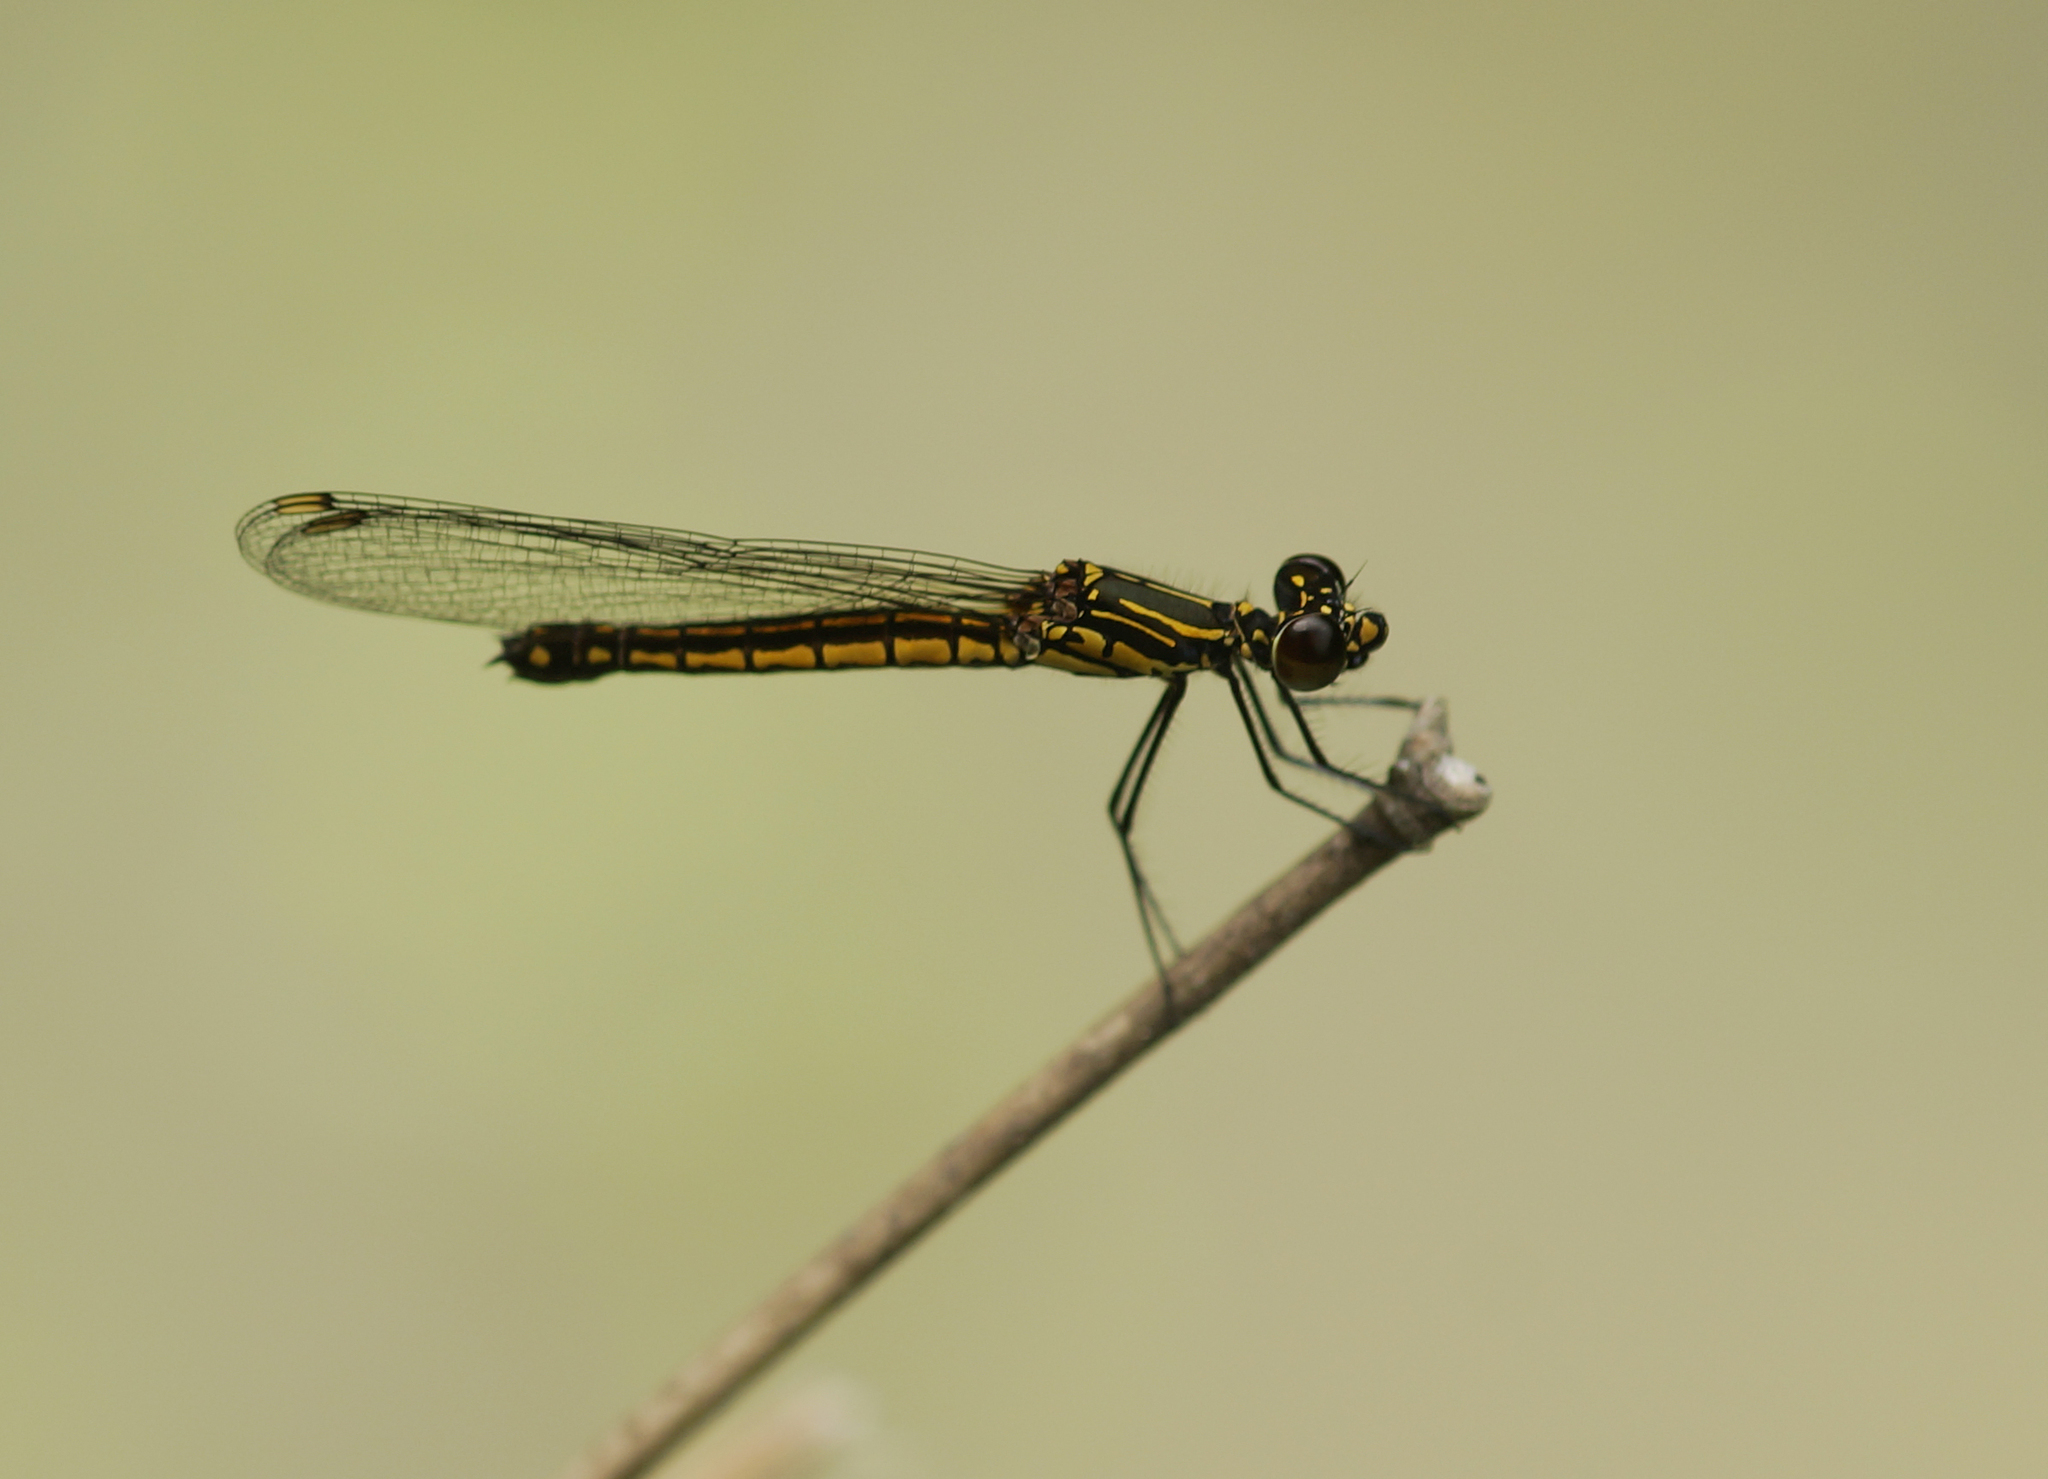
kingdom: Animalia
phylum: Arthropoda
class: Insecta
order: Odonata
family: Chlorocyphidae
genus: Libellago
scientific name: Libellago lineata
